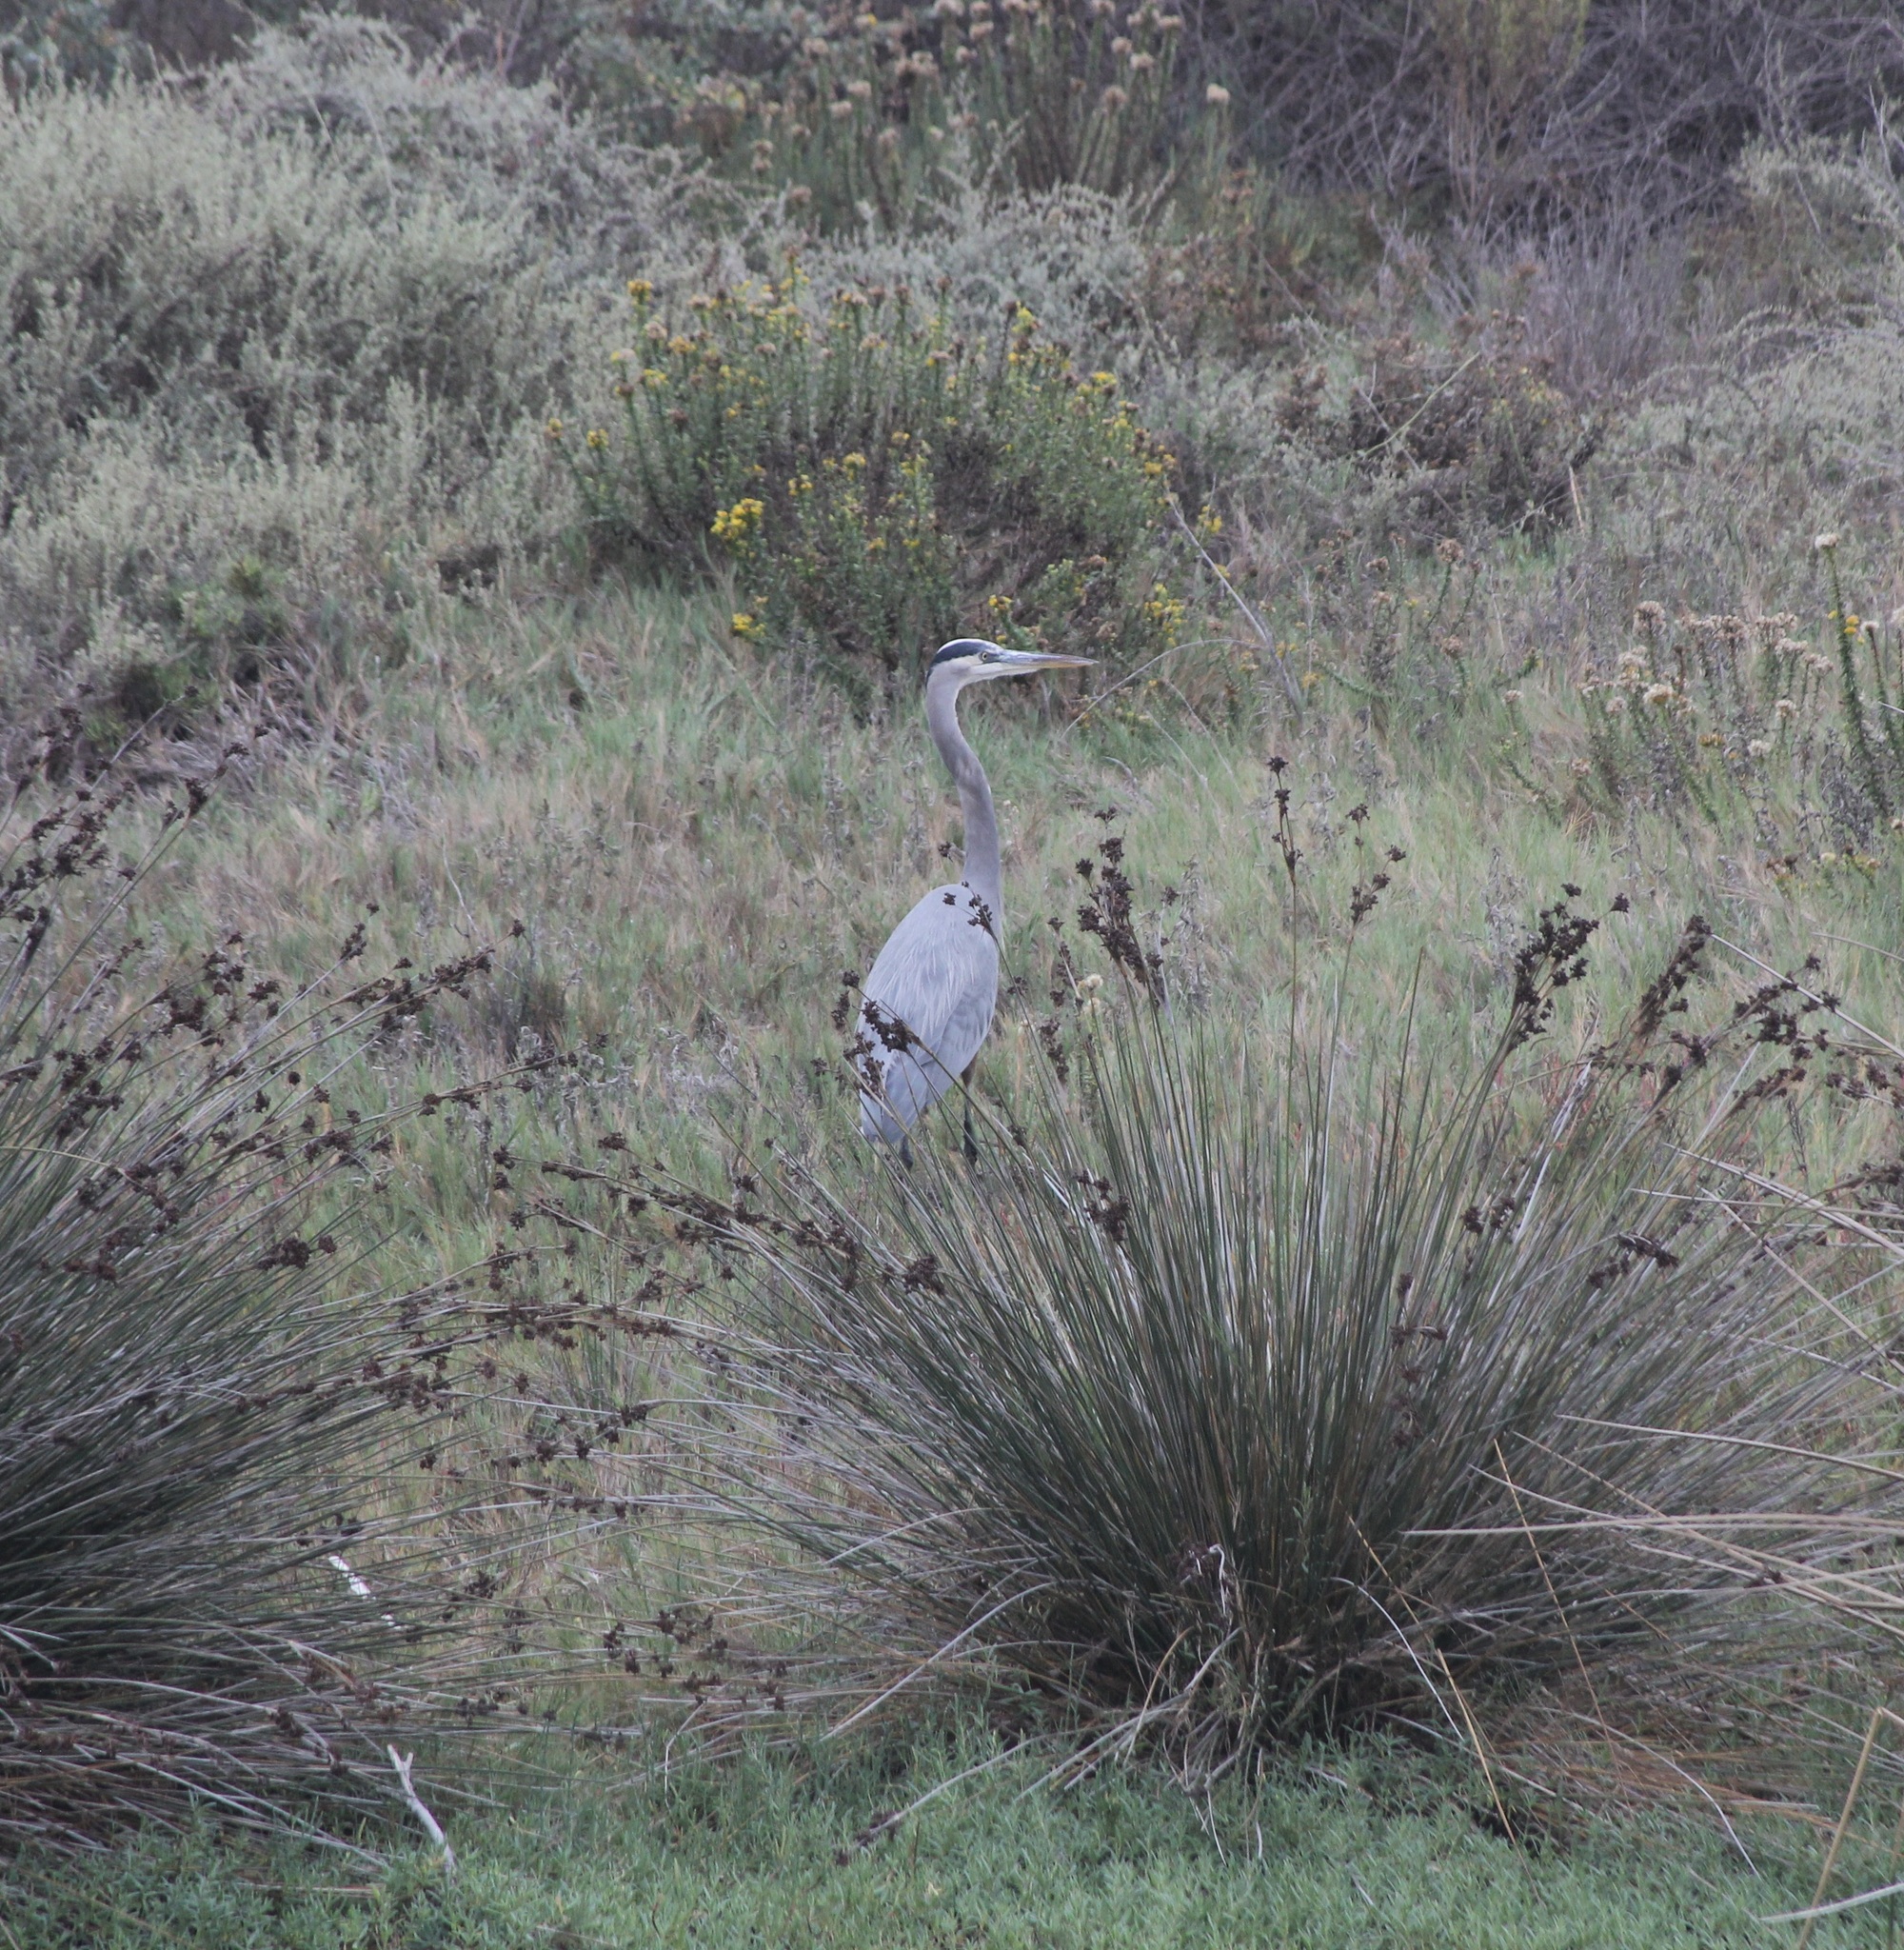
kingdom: Animalia
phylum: Chordata
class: Aves
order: Pelecaniformes
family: Ardeidae
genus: Ardea
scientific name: Ardea herodias
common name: Great blue heron
